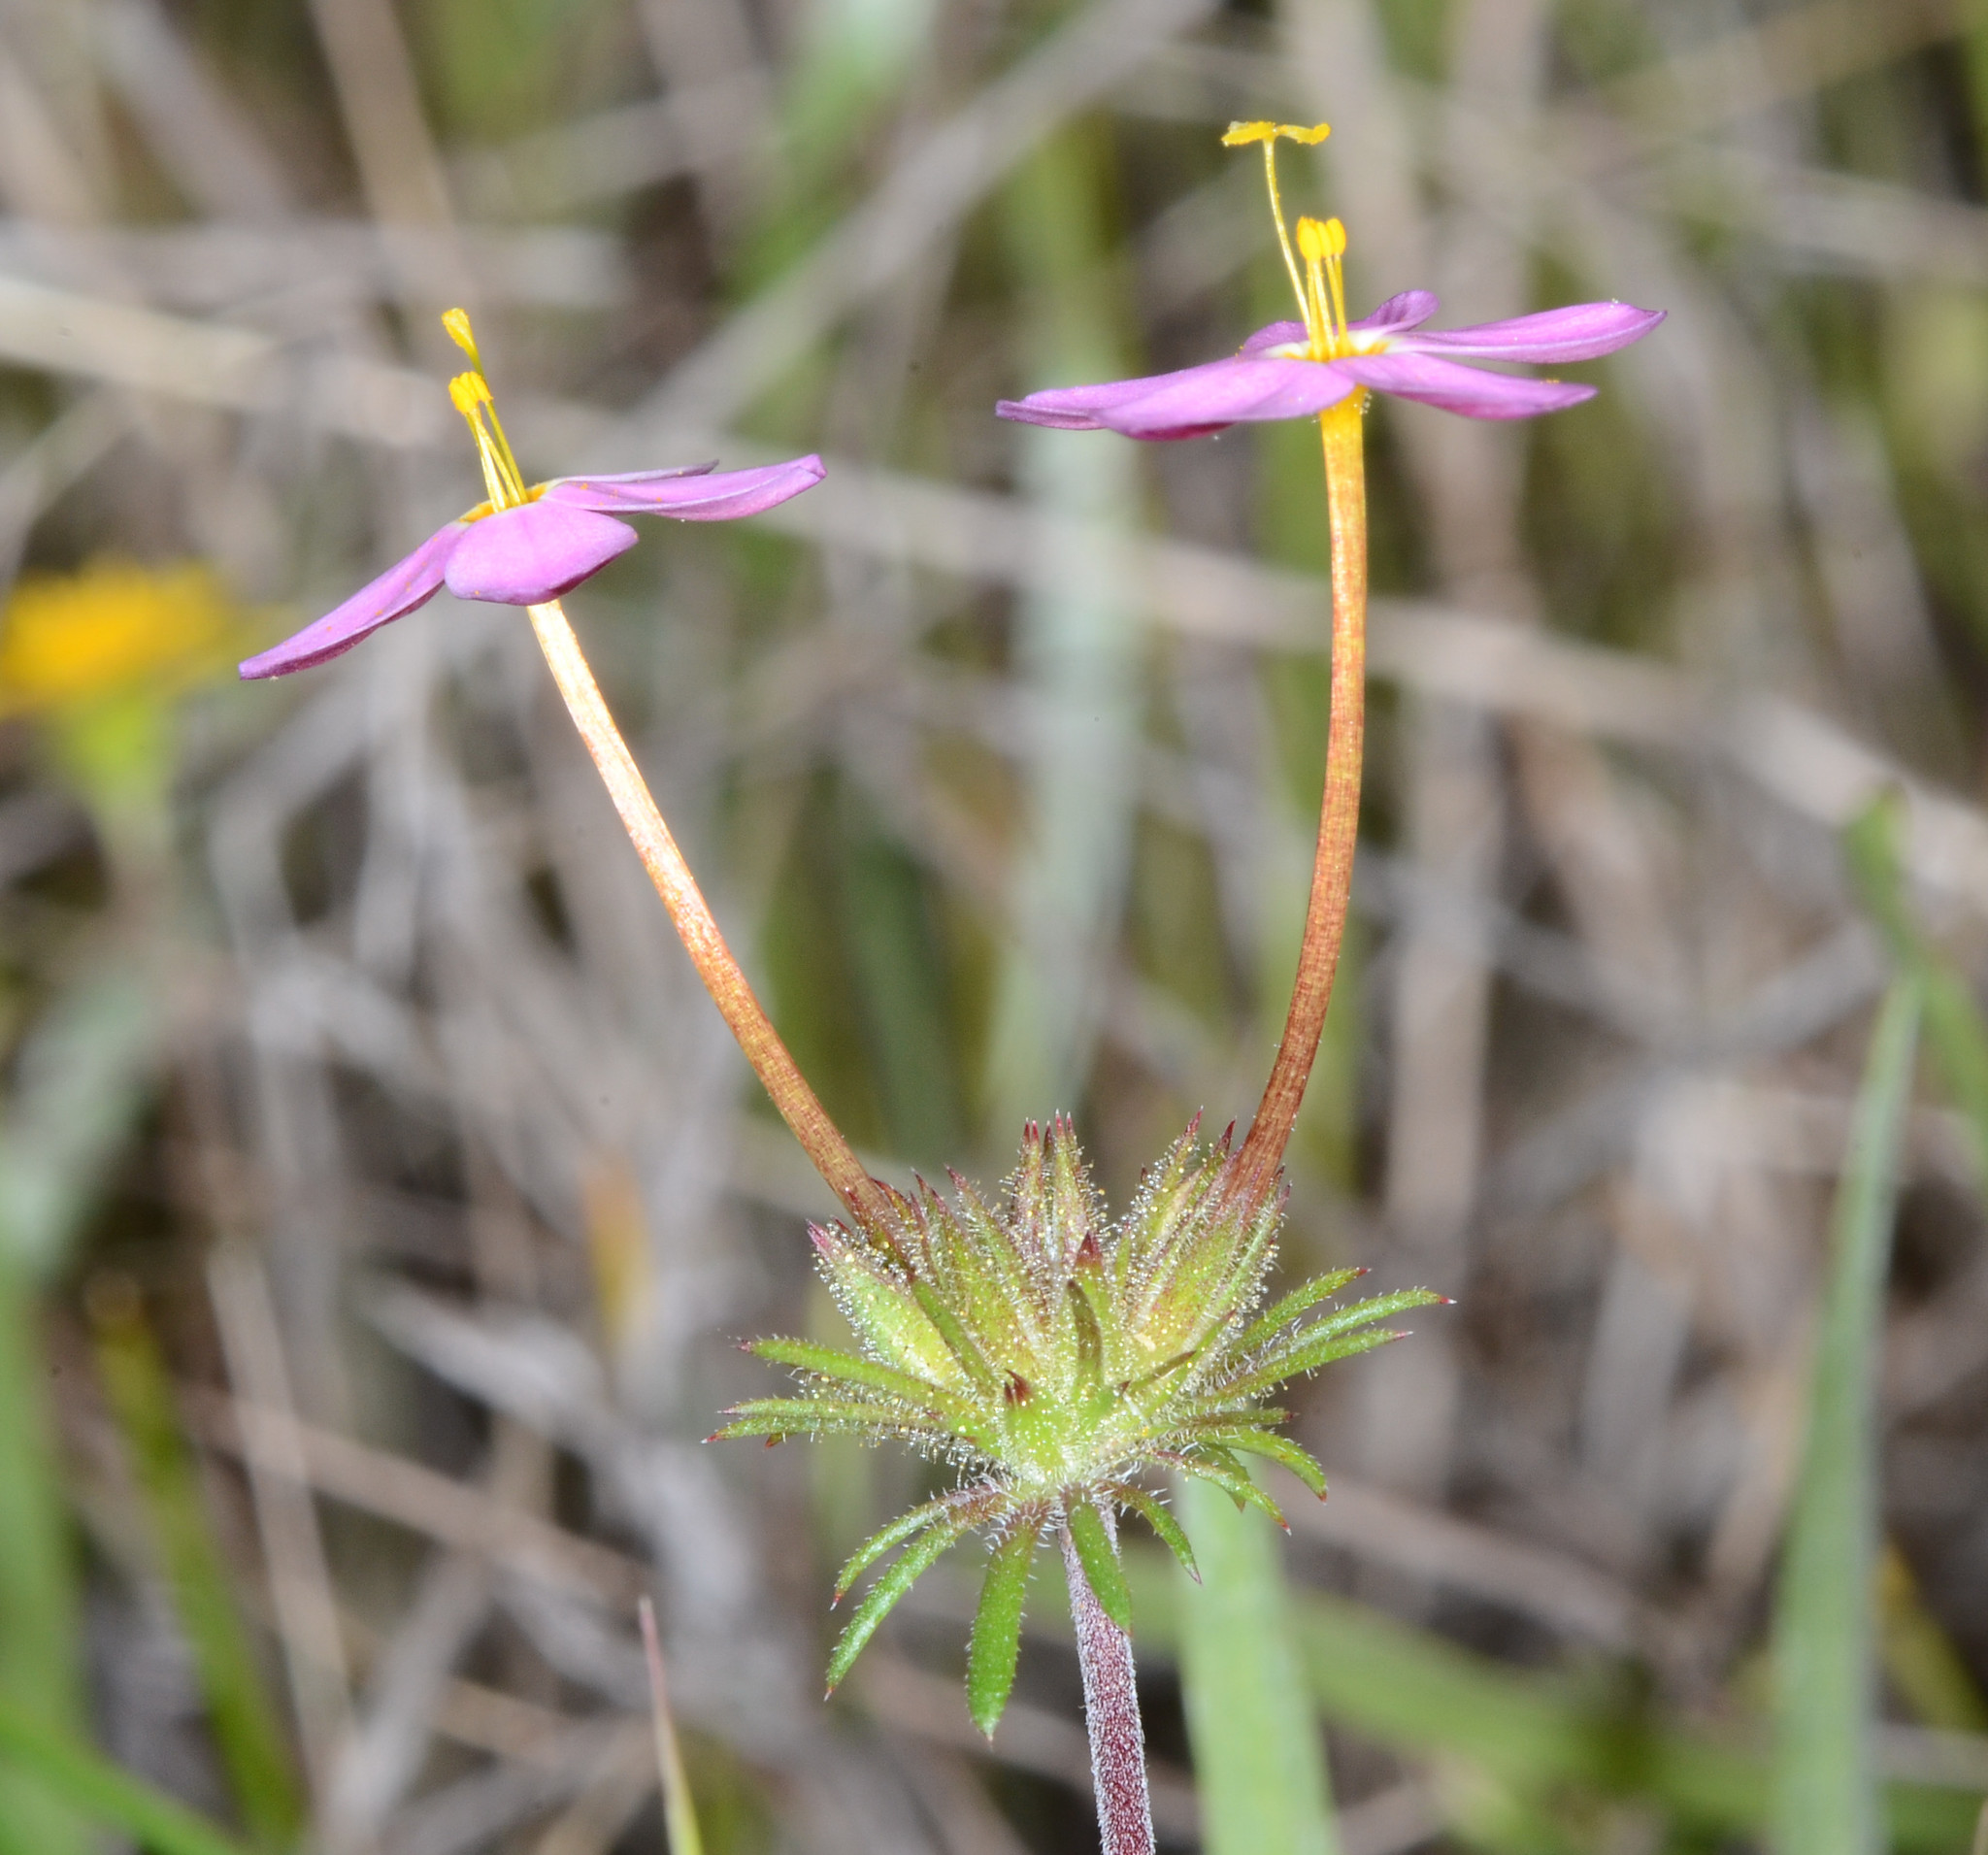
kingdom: Plantae
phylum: Tracheophyta
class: Magnoliopsida
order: Ericales
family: Polemoniaceae
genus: Leptosiphon
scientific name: Leptosiphon androsaceus
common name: False babystars
